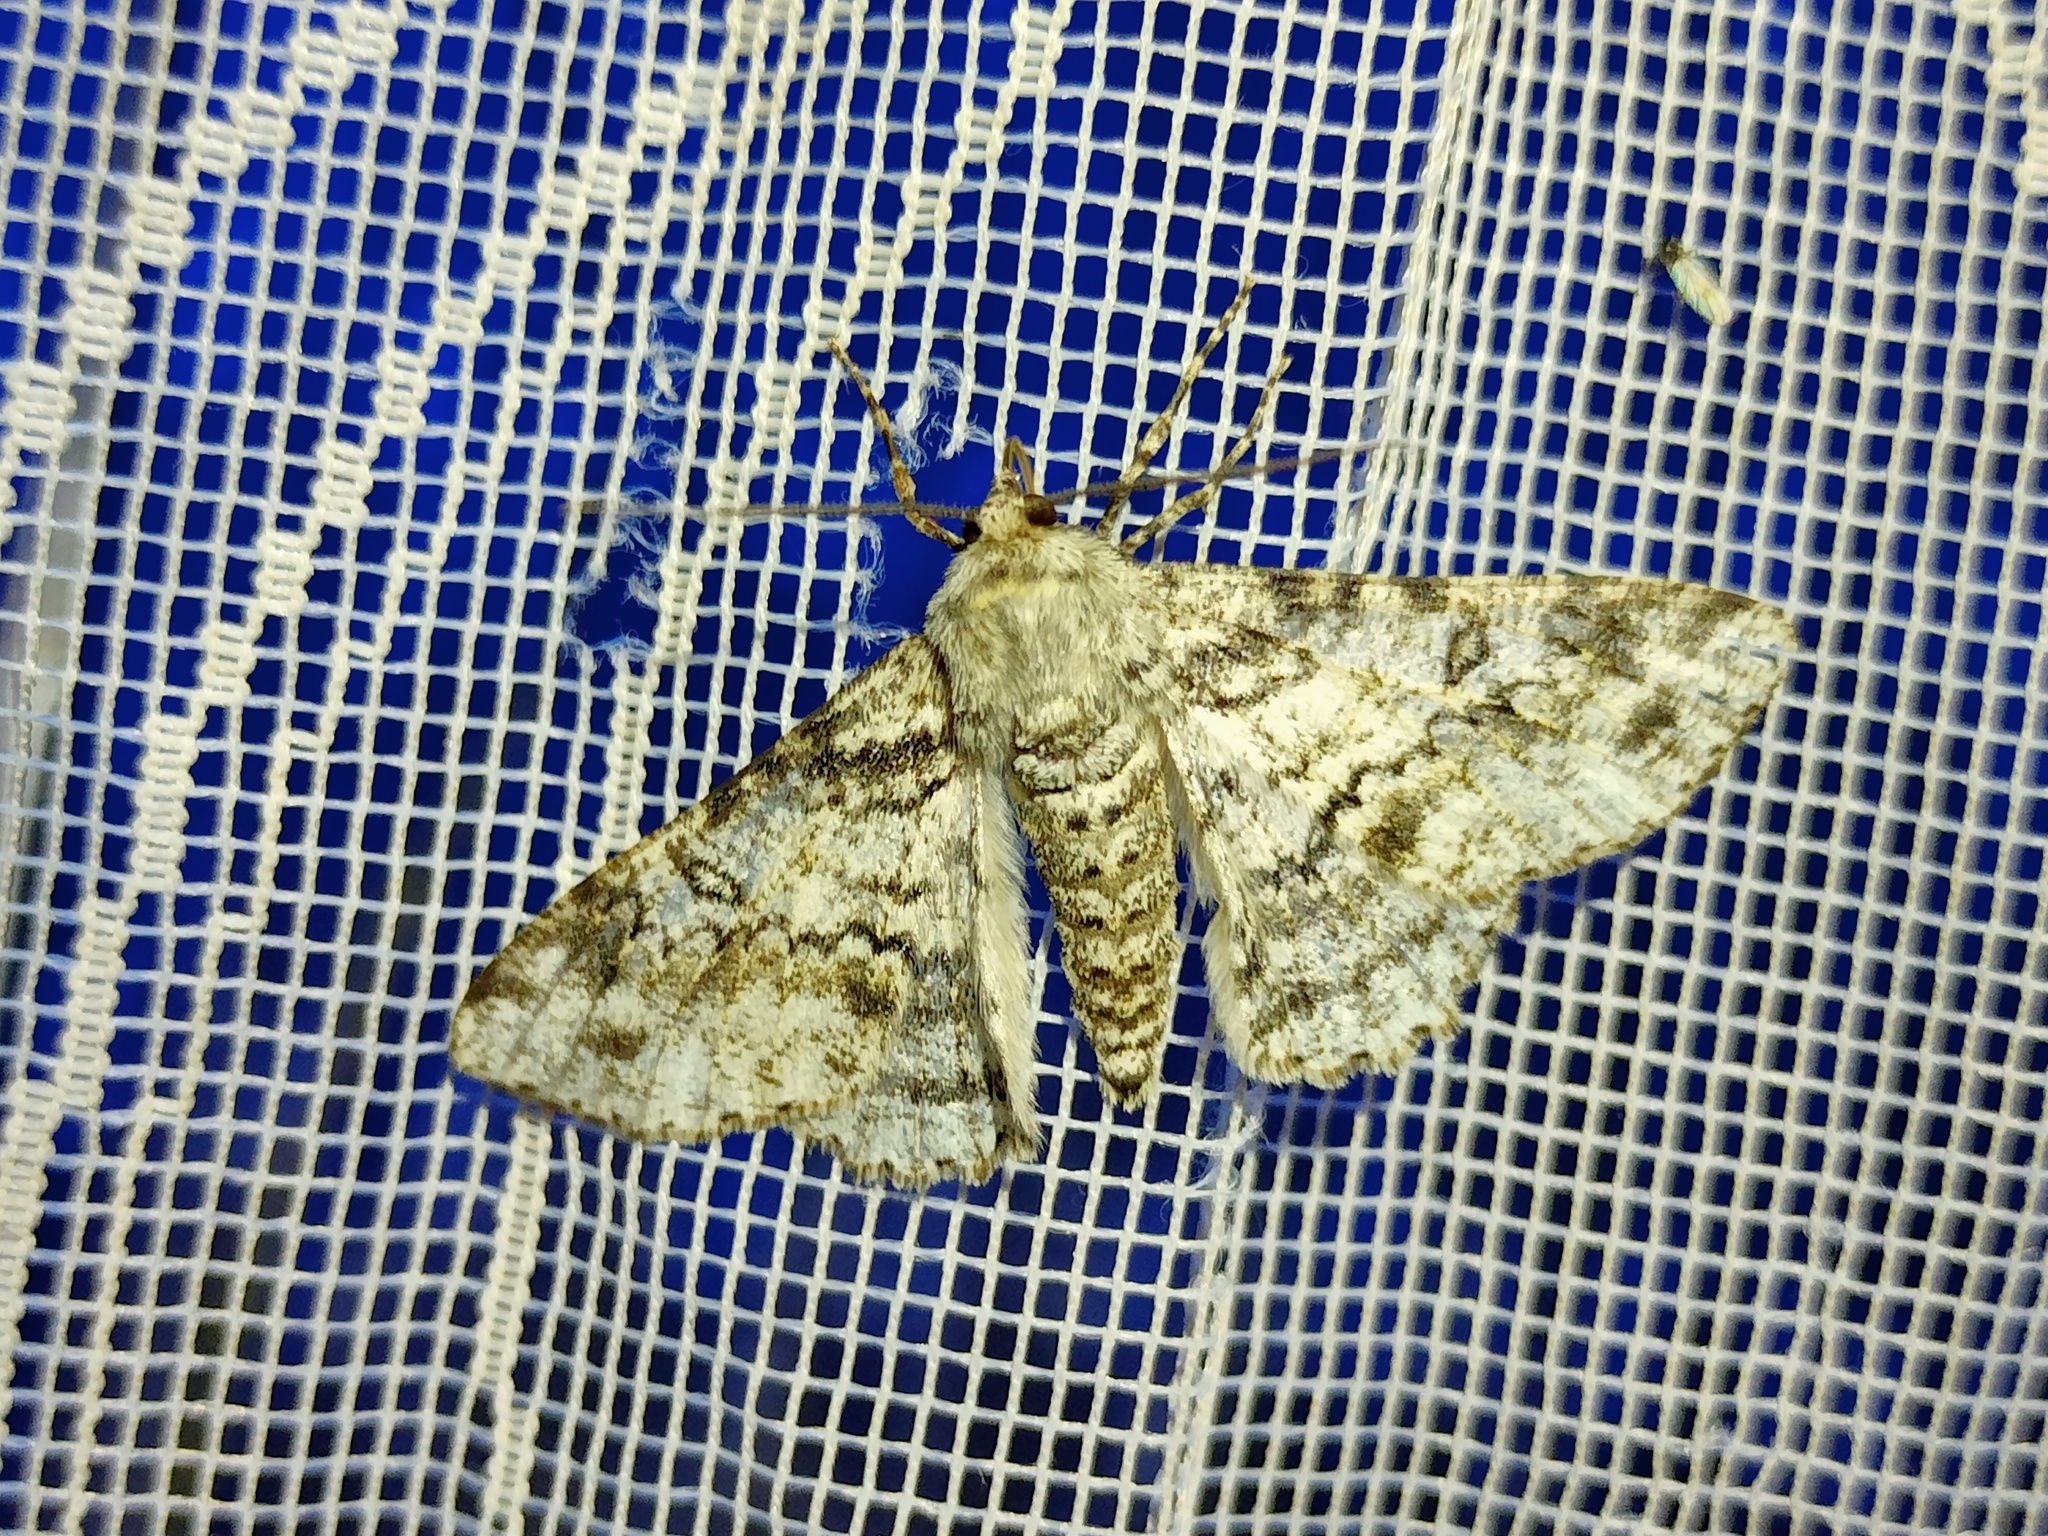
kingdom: Animalia
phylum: Arthropoda
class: Insecta
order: Lepidoptera
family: Geometridae
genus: Ascotis
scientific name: Ascotis selenaria
